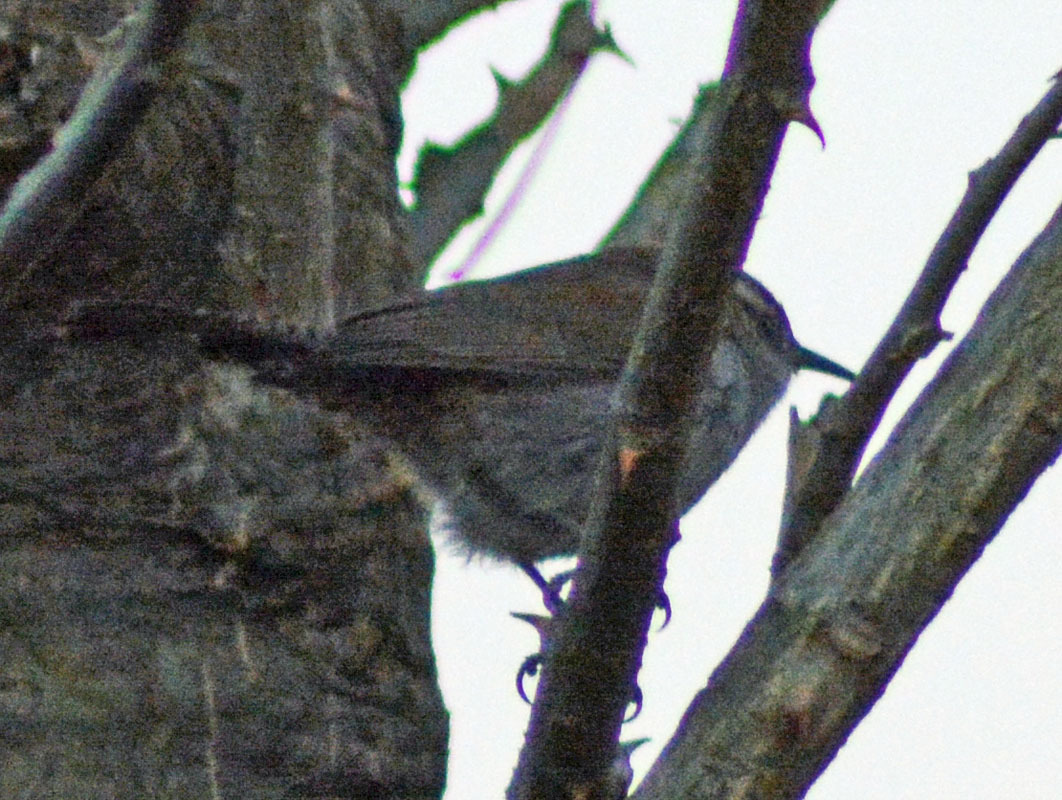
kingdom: Animalia
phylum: Chordata
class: Aves
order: Passeriformes
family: Troglodytidae
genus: Thryomanes
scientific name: Thryomanes bewickii
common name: Bewick's wren
